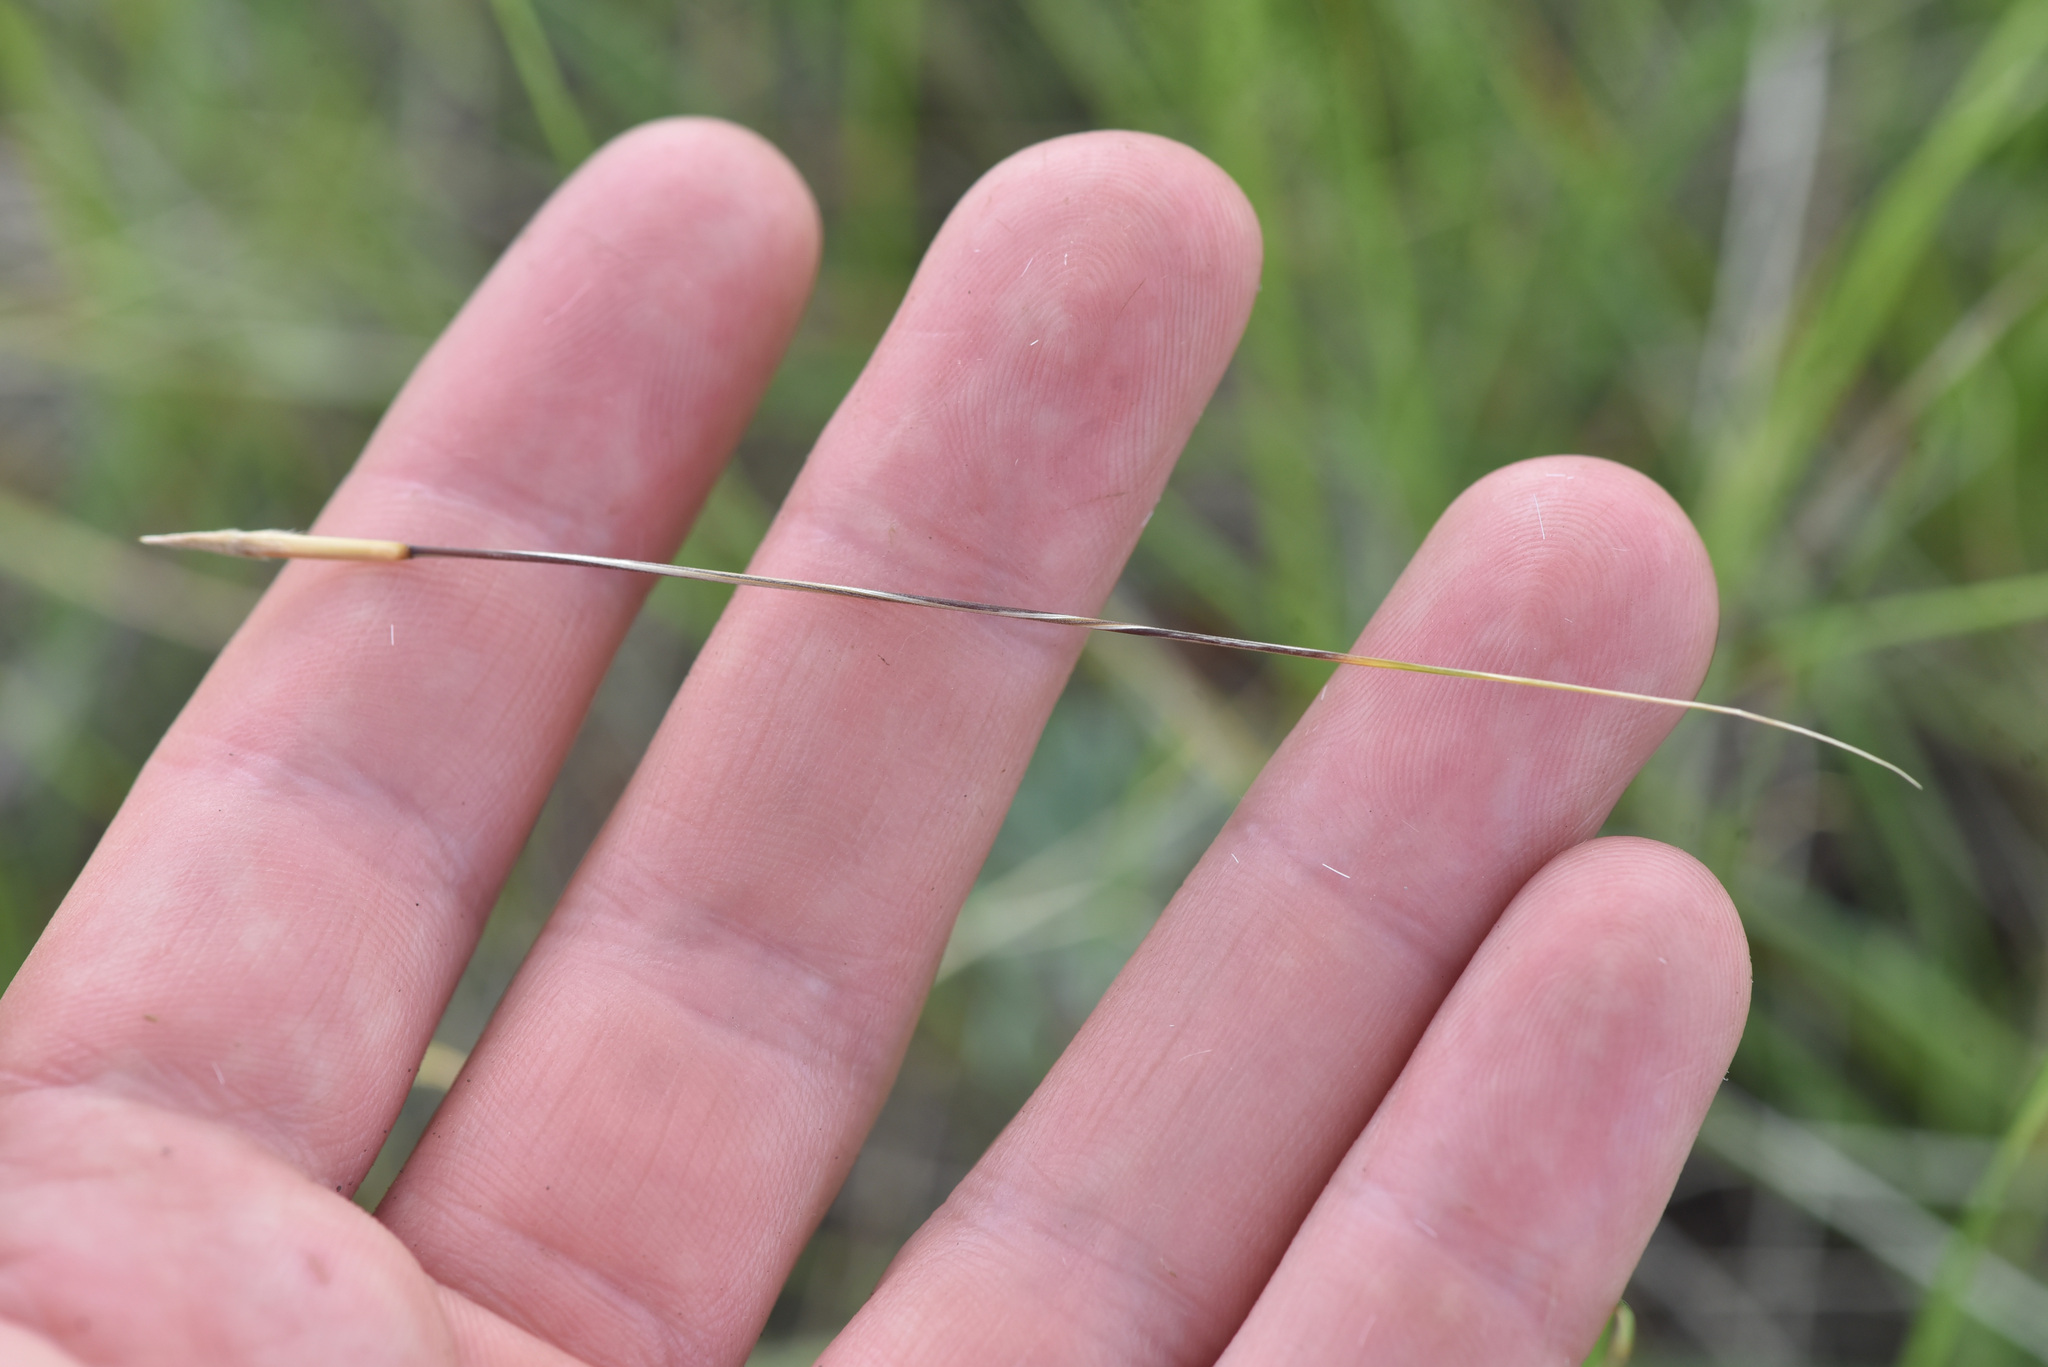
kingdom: Plantae
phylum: Tracheophyta
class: Liliopsida
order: Poales
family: Poaceae
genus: Hesperostipa
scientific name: Hesperostipa comata
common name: Needle-and-thread grass
